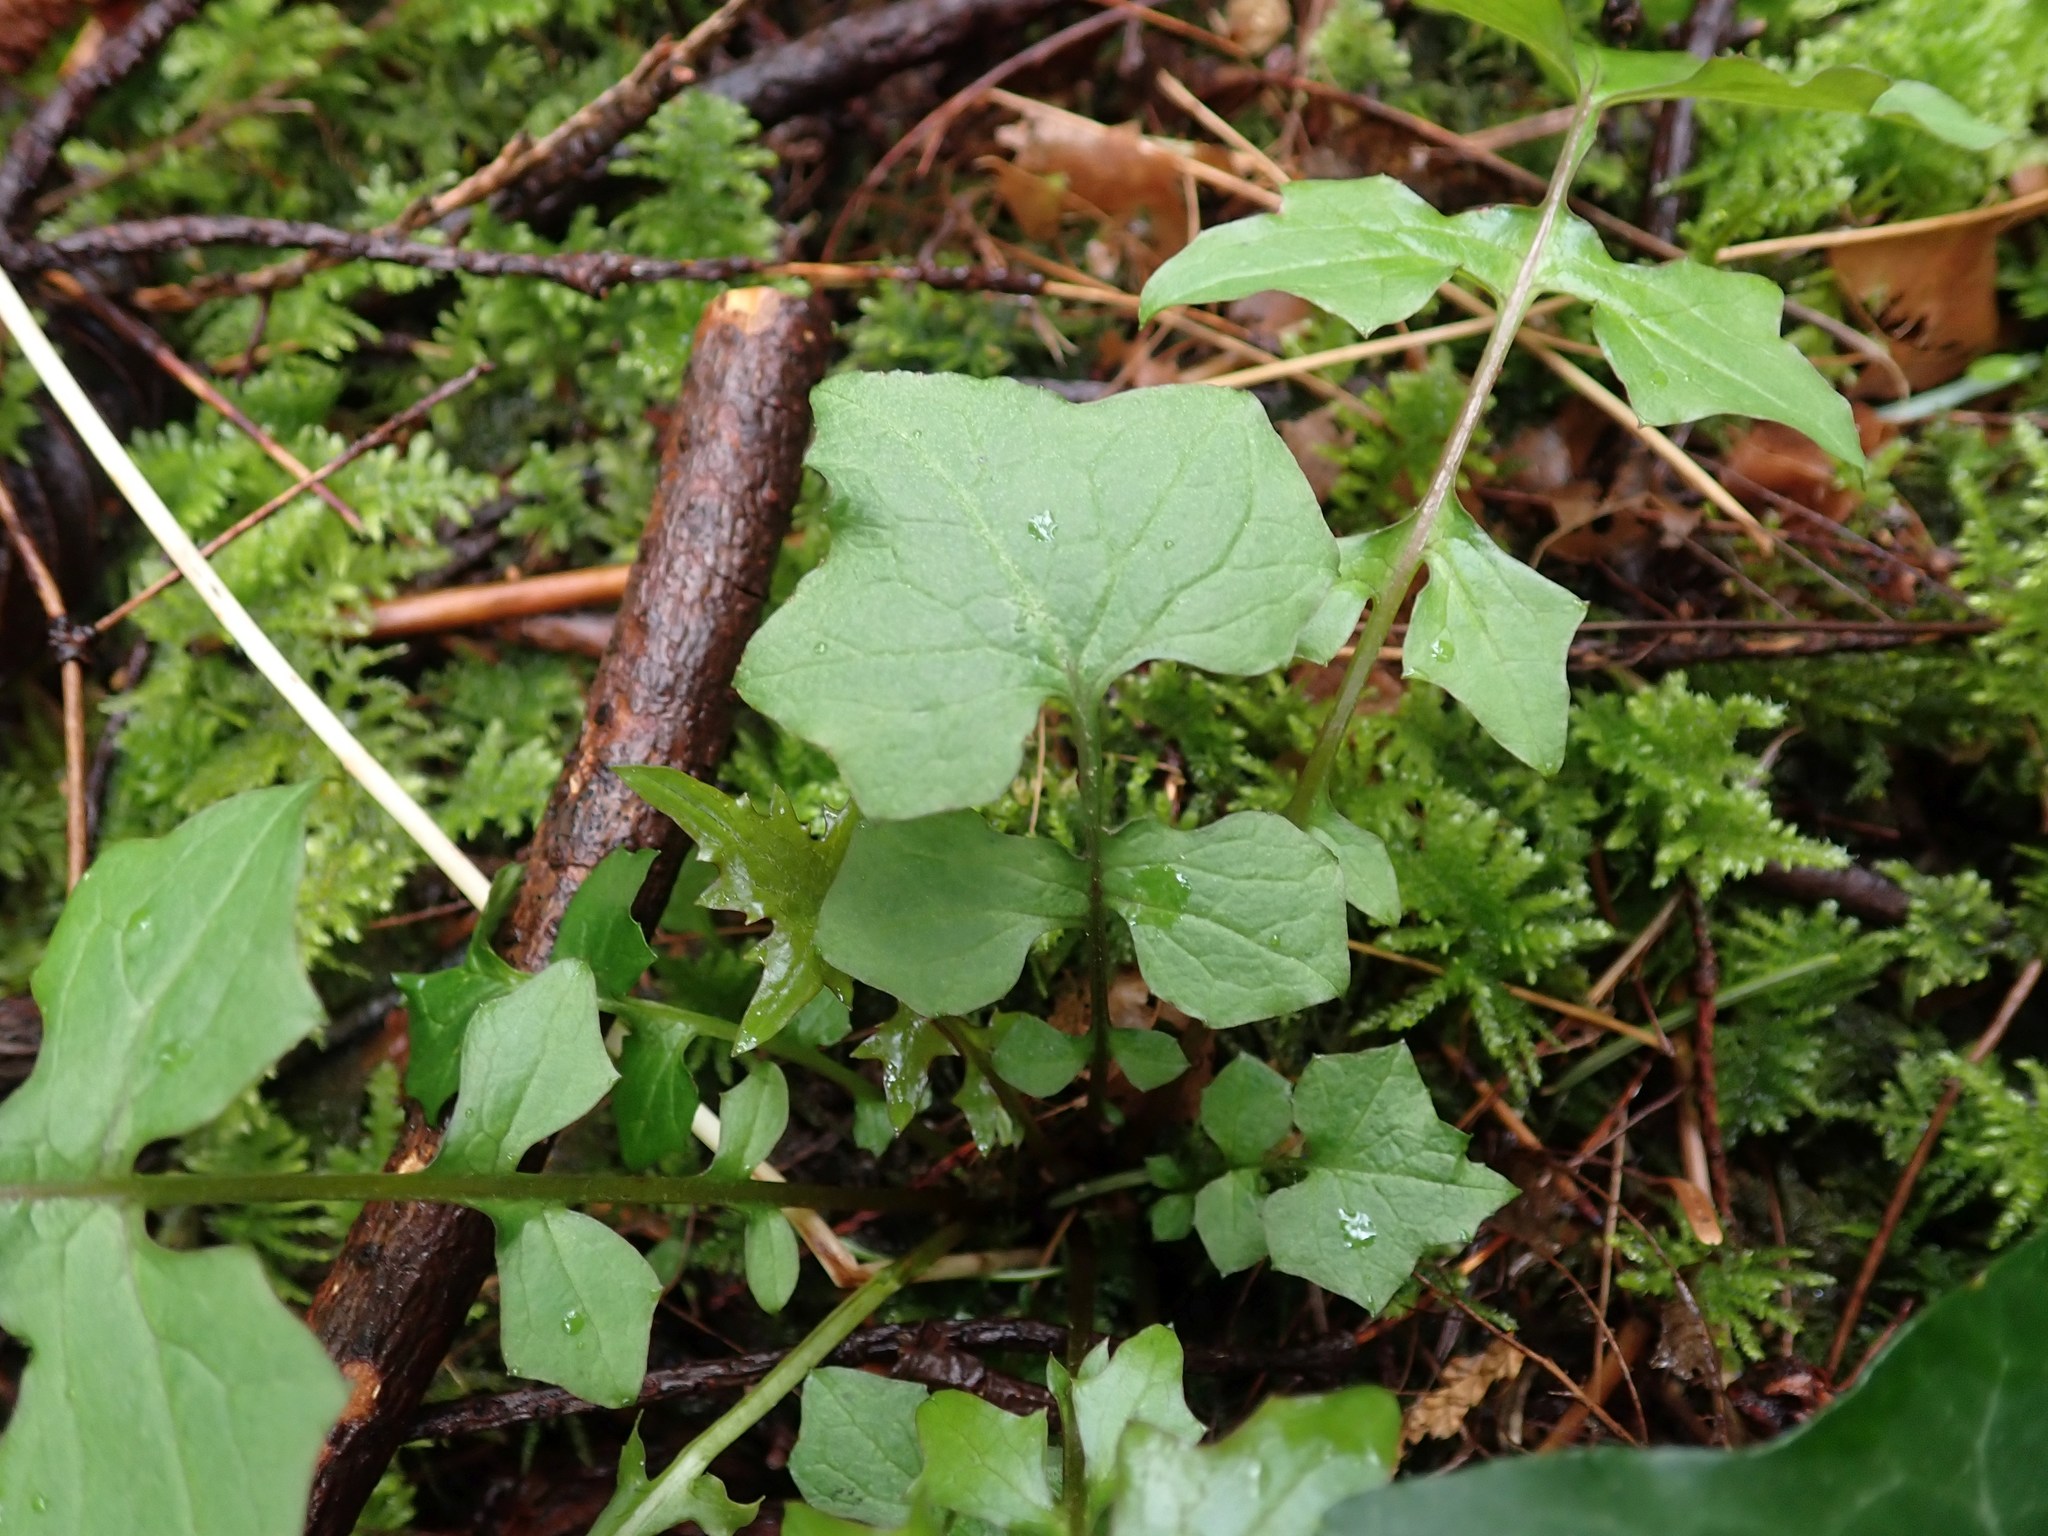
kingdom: Plantae
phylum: Tracheophyta
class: Magnoliopsida
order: Asterales
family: Asteraceae
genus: Mycelis
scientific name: Mycelis muralis
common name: Wall lettuce
